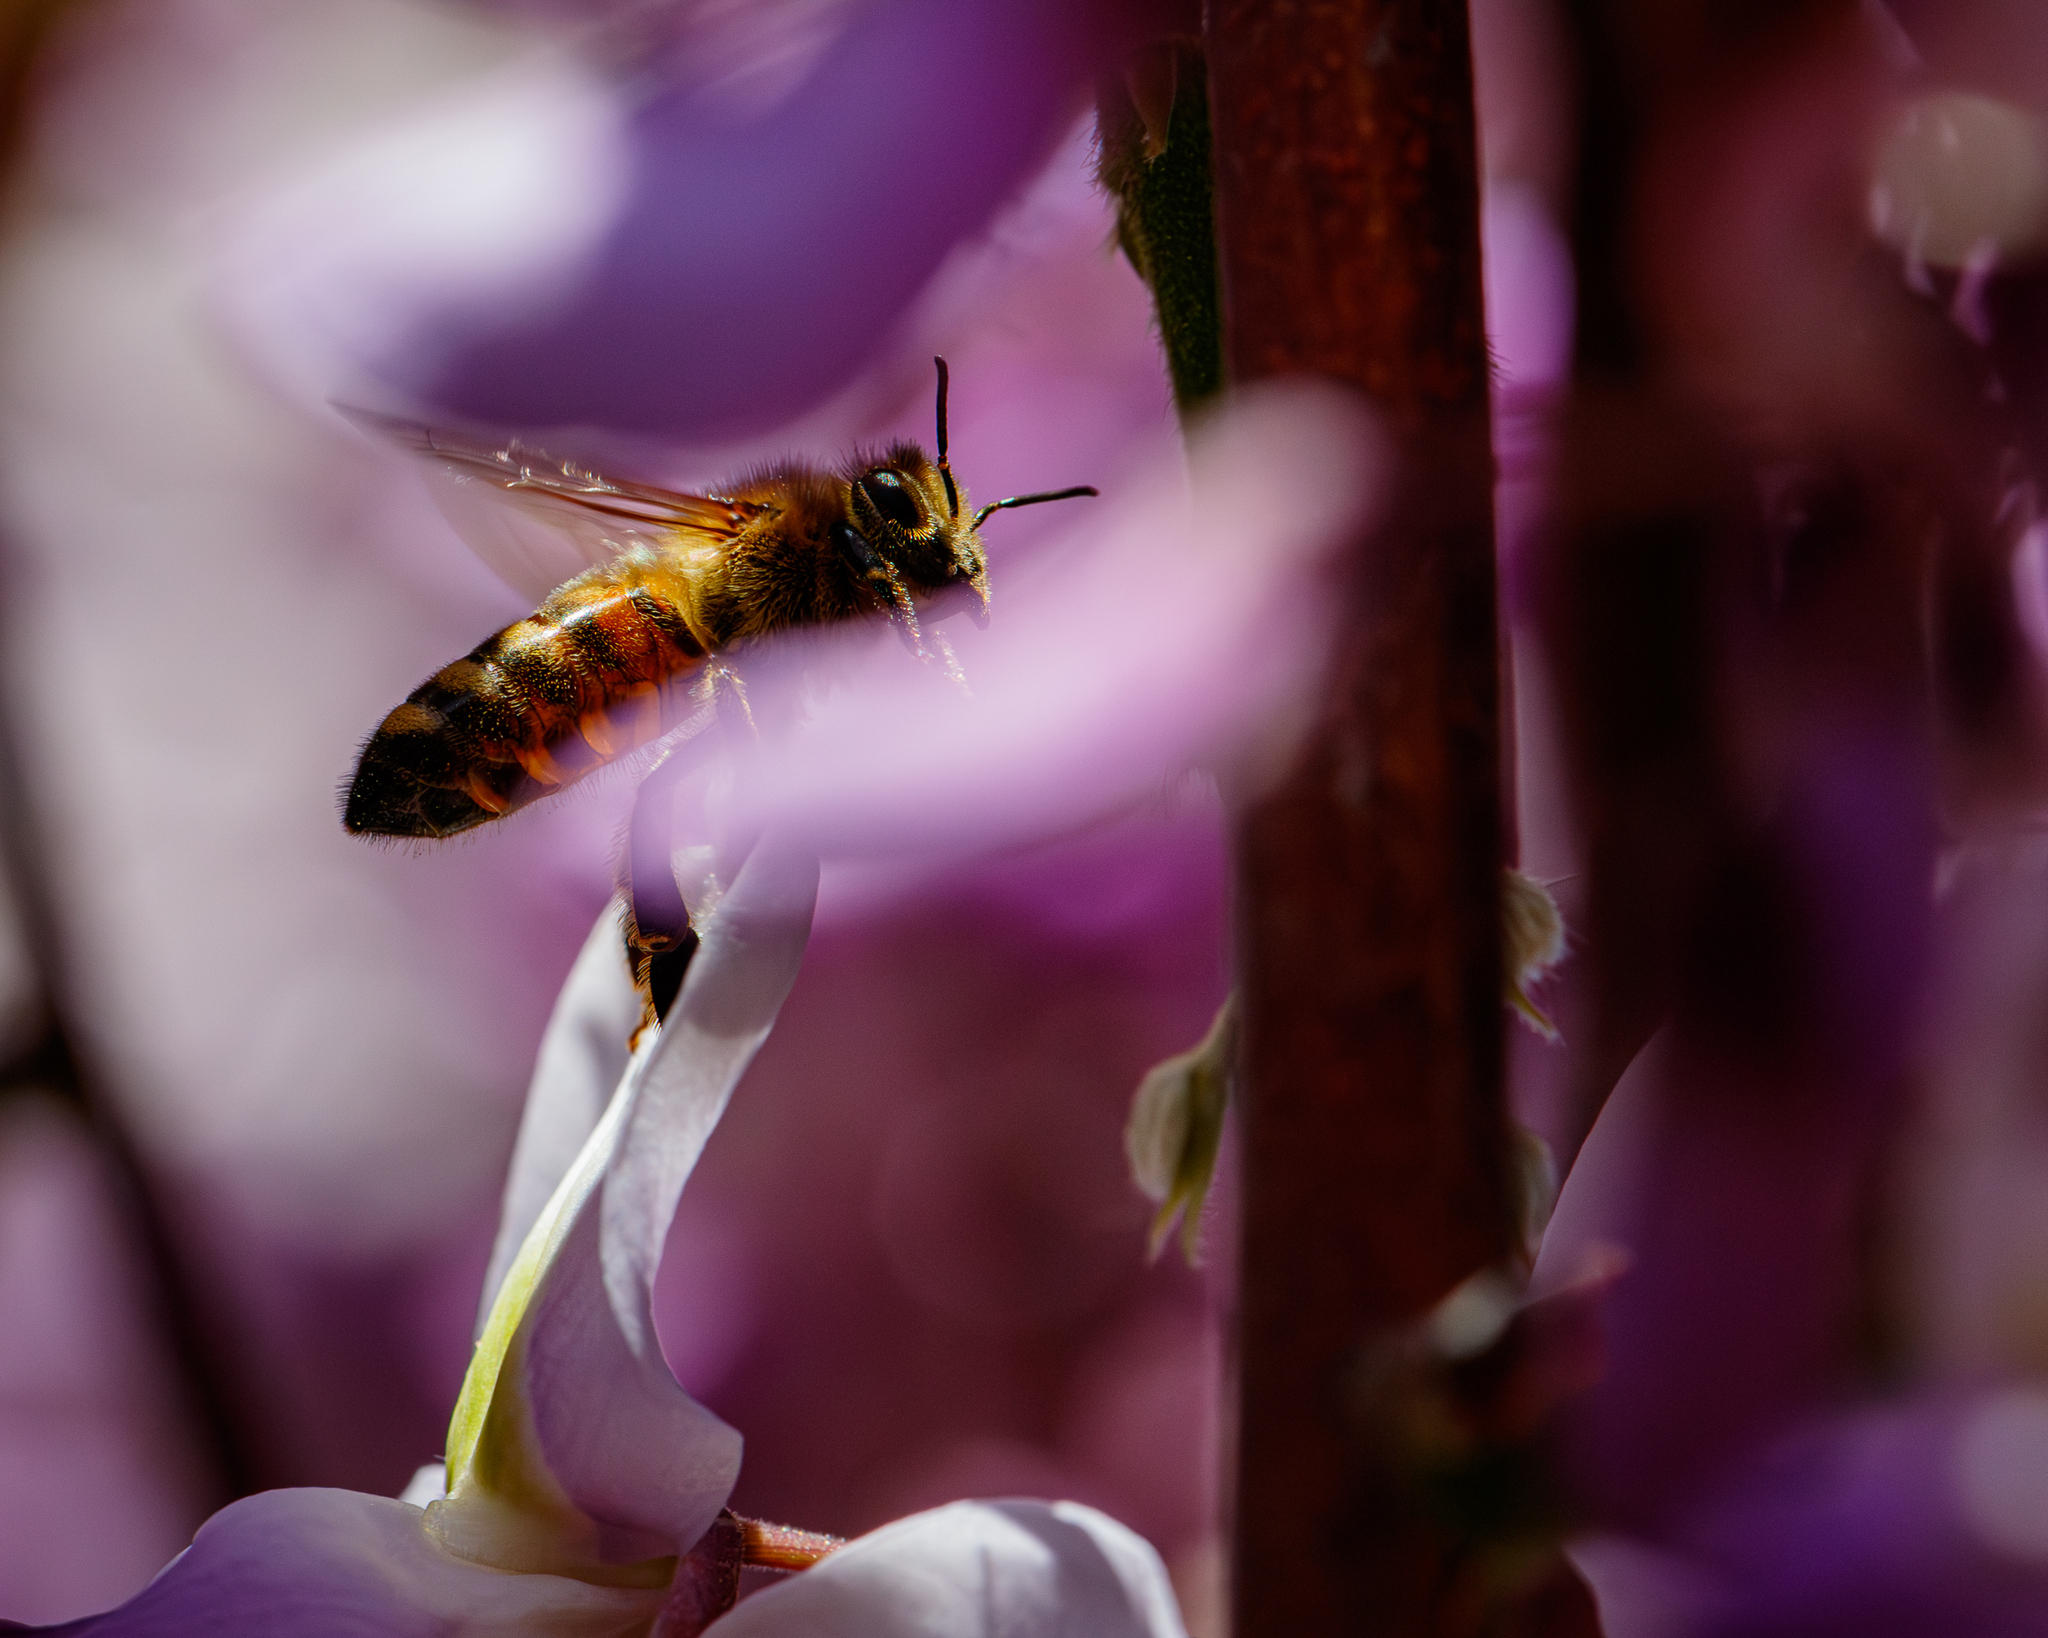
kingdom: Animalia
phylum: Arthropoda
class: Insecta
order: Hymenoptera
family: Apidae
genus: Apis
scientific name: Apis mellifera
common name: Honey bee
